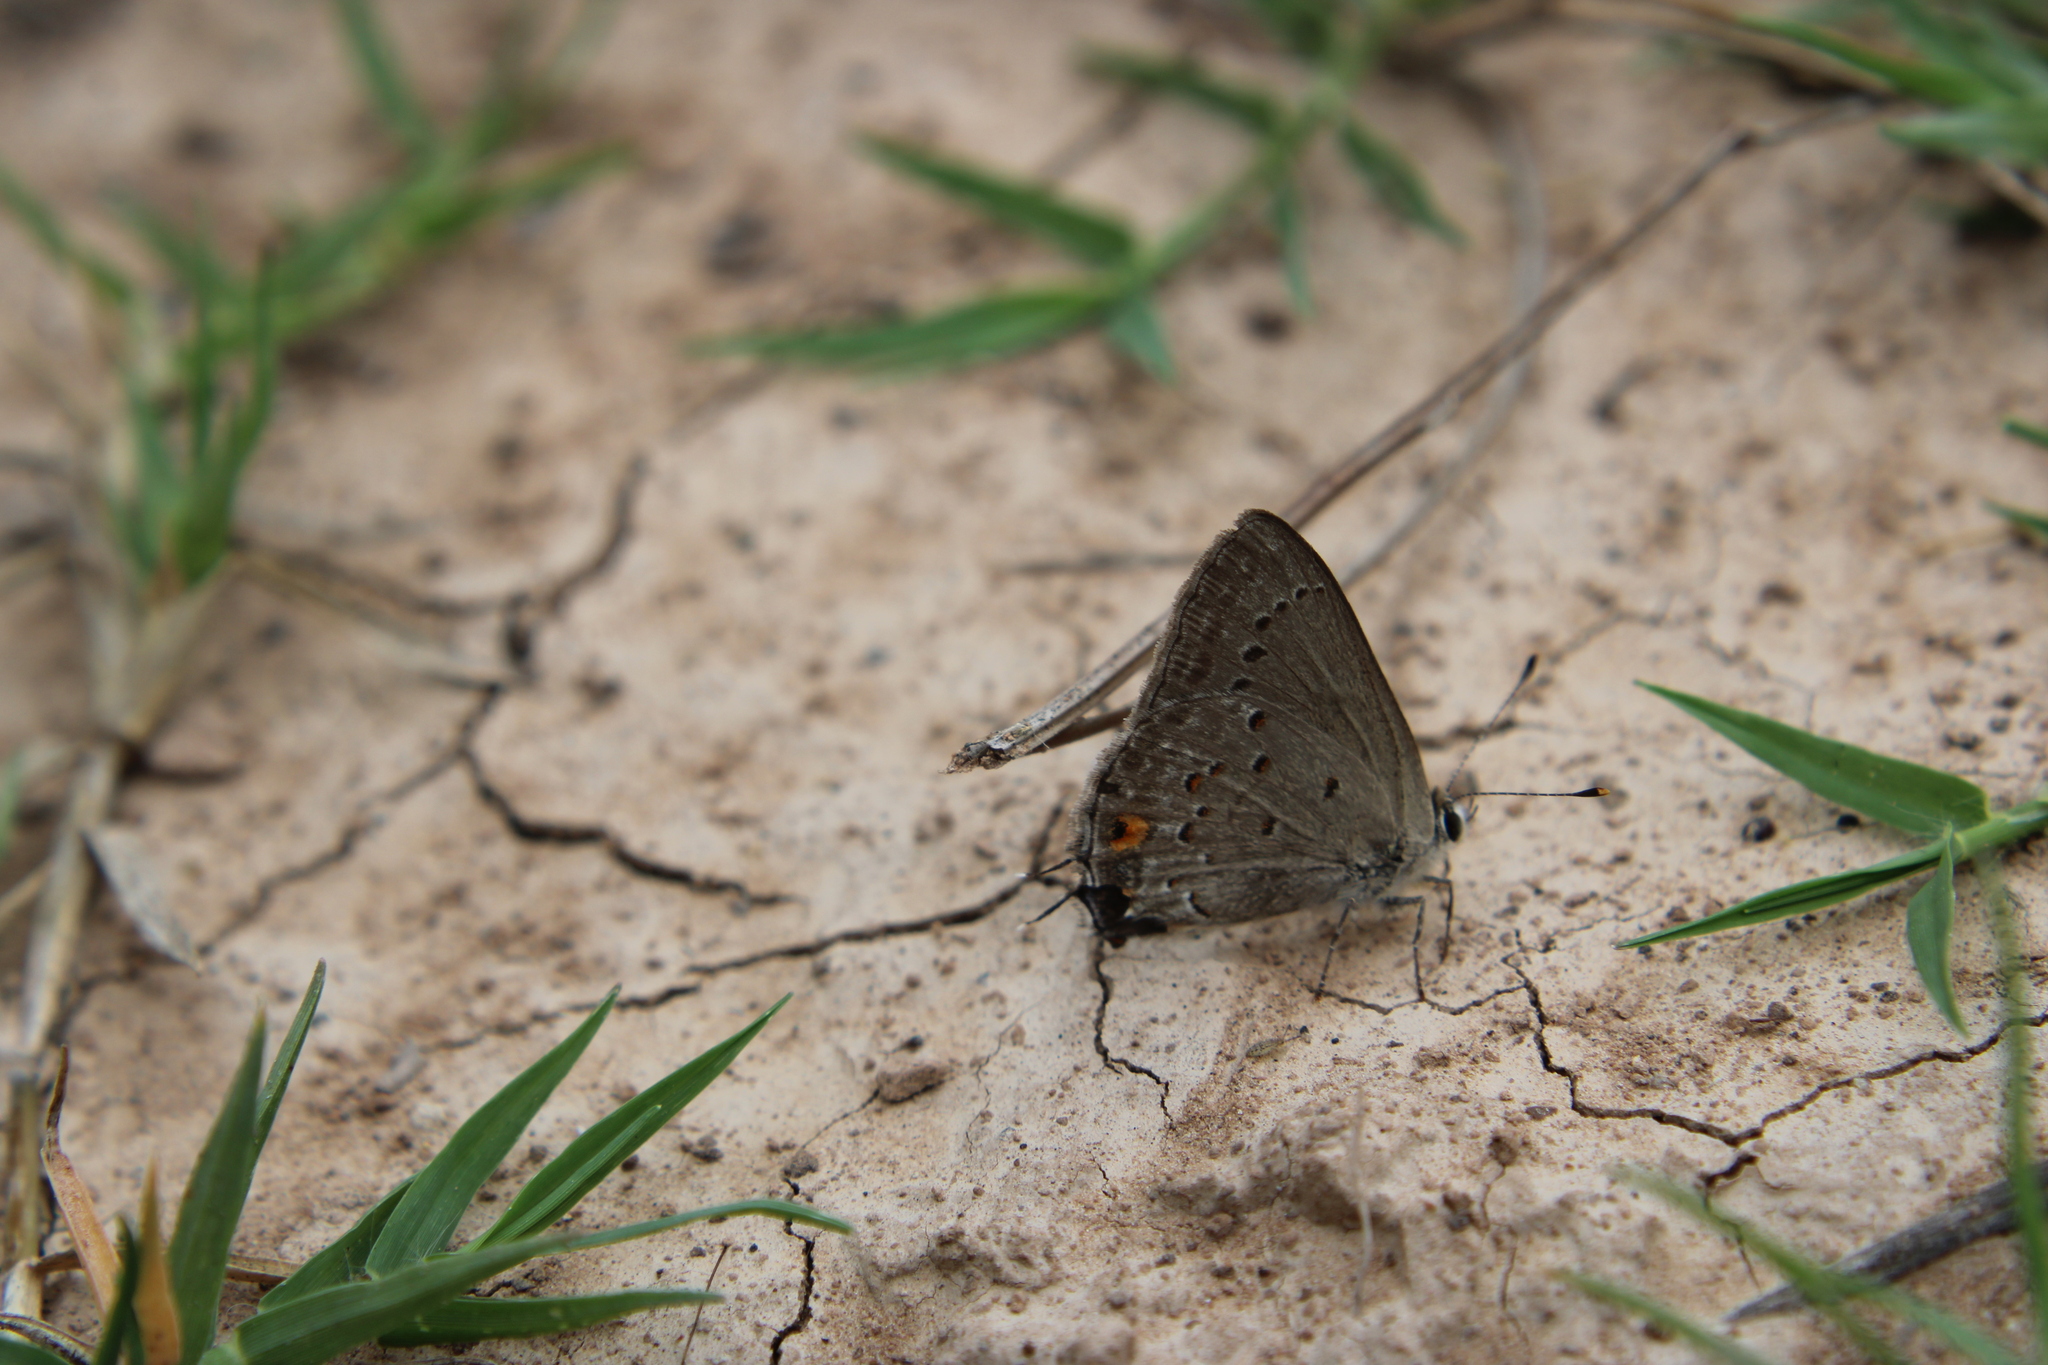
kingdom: Animalia
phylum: Arthropoda
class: Insecta
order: Lepidoptera
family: Lycaenidae
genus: Strymon
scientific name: Strymon eurytulus
